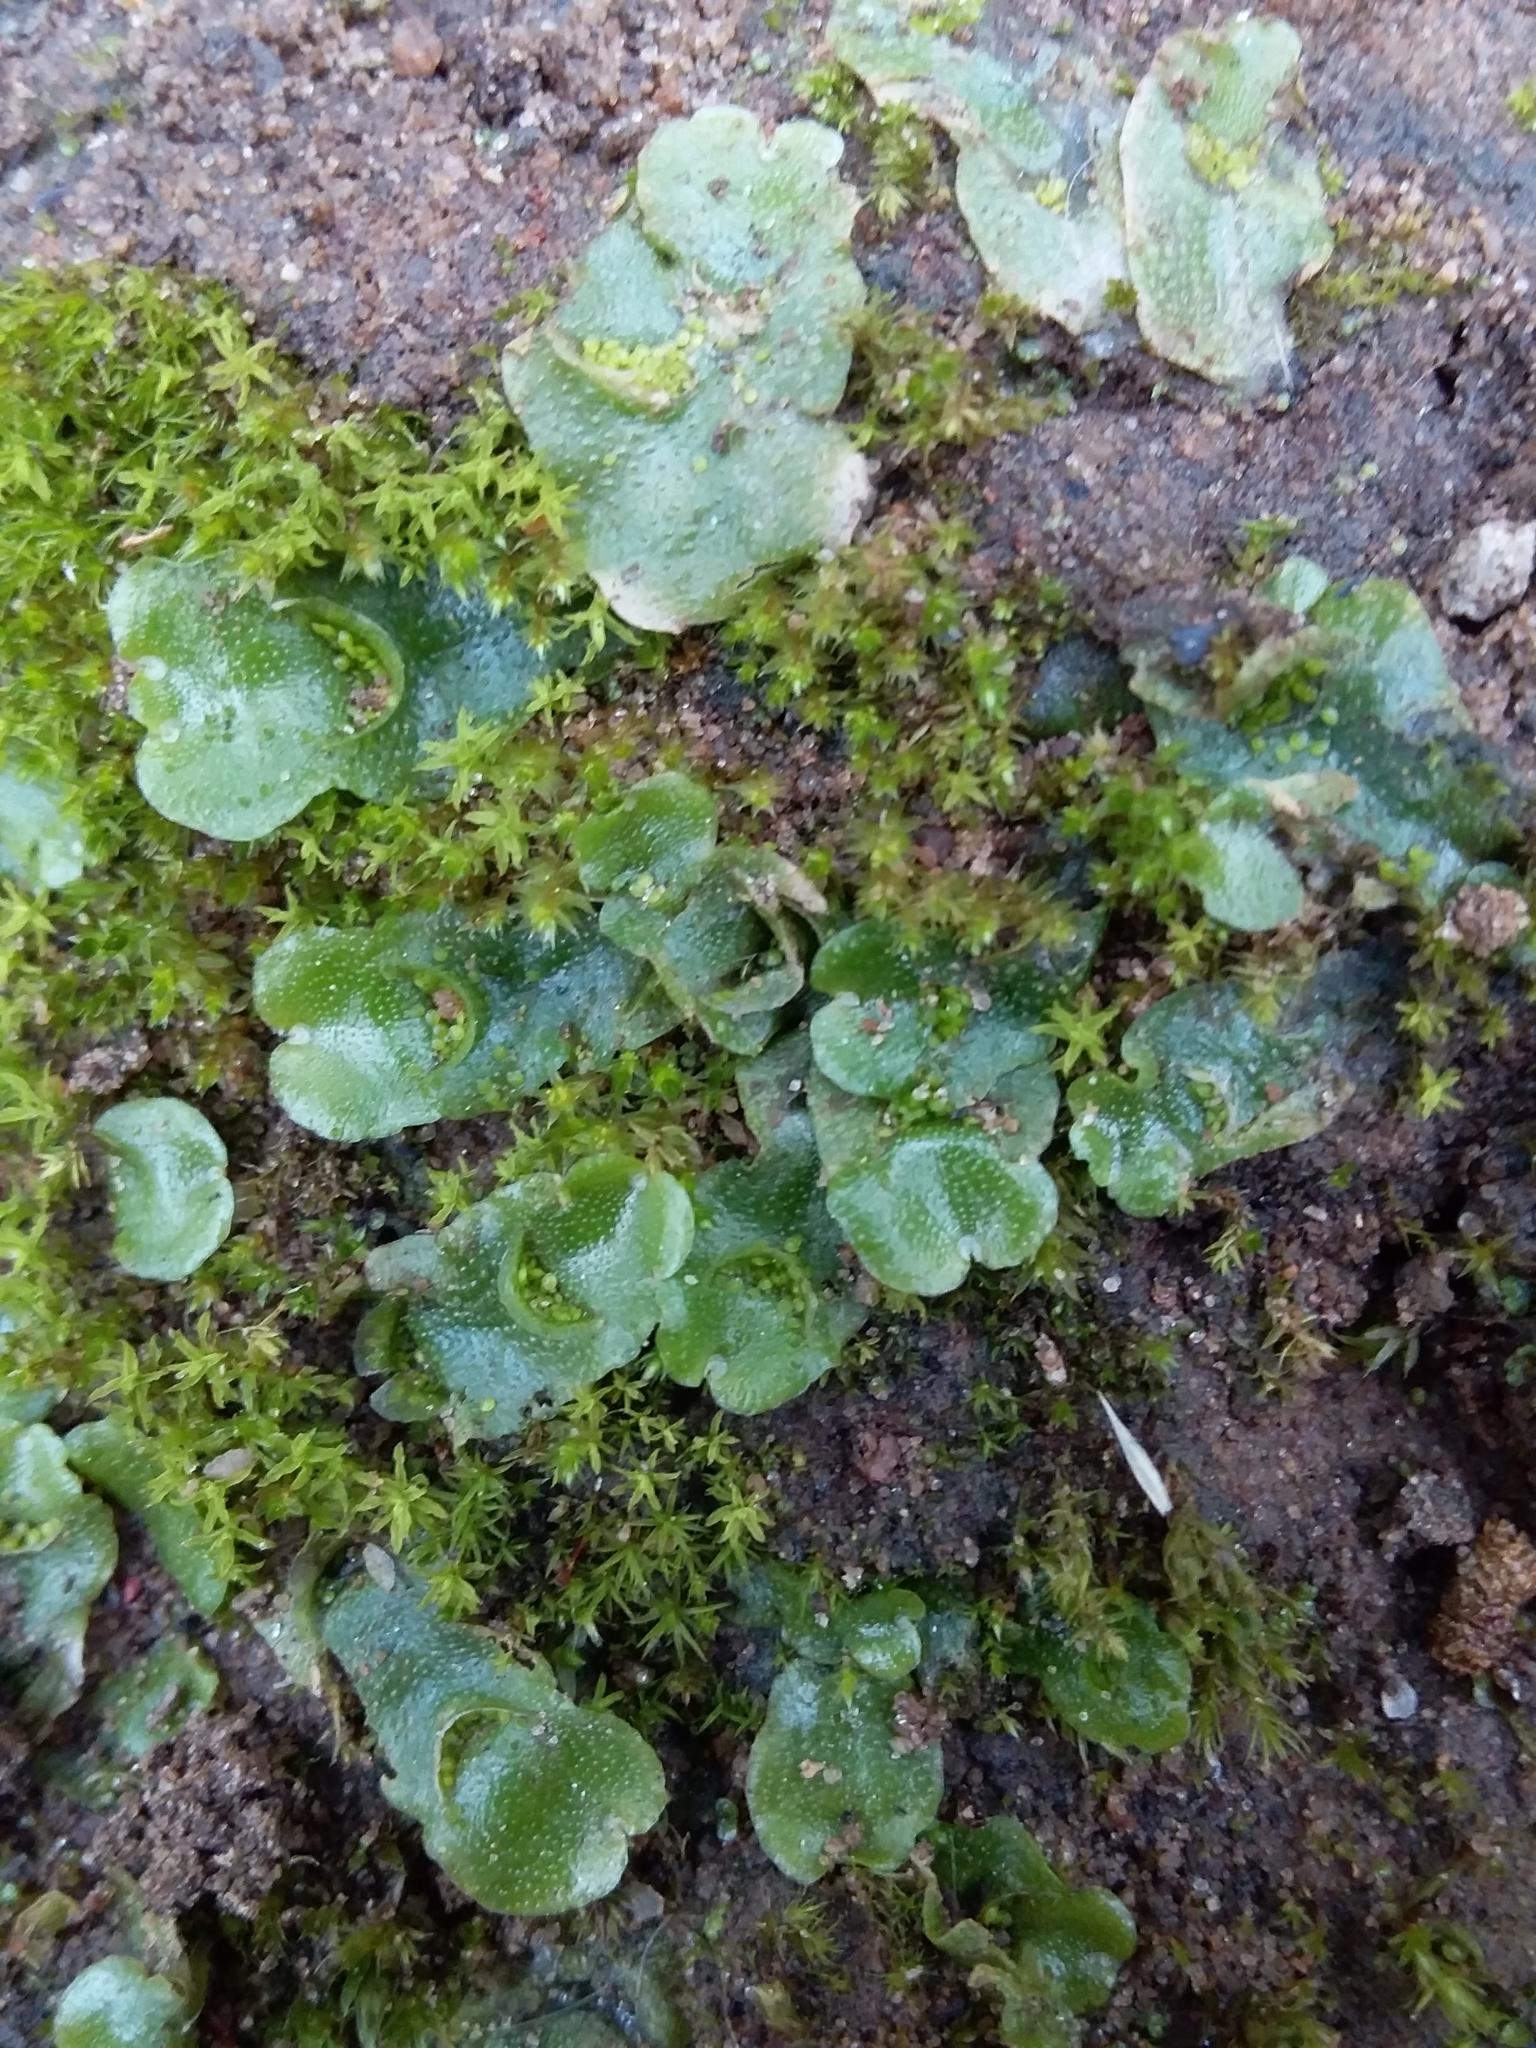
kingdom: Plantae
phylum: Marchantiophyta
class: Marchantiopsida
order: Lunulariales
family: Lunulariaceae
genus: Lunularia
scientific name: Lunularia cruciata
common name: Crescent-cup liverwort
